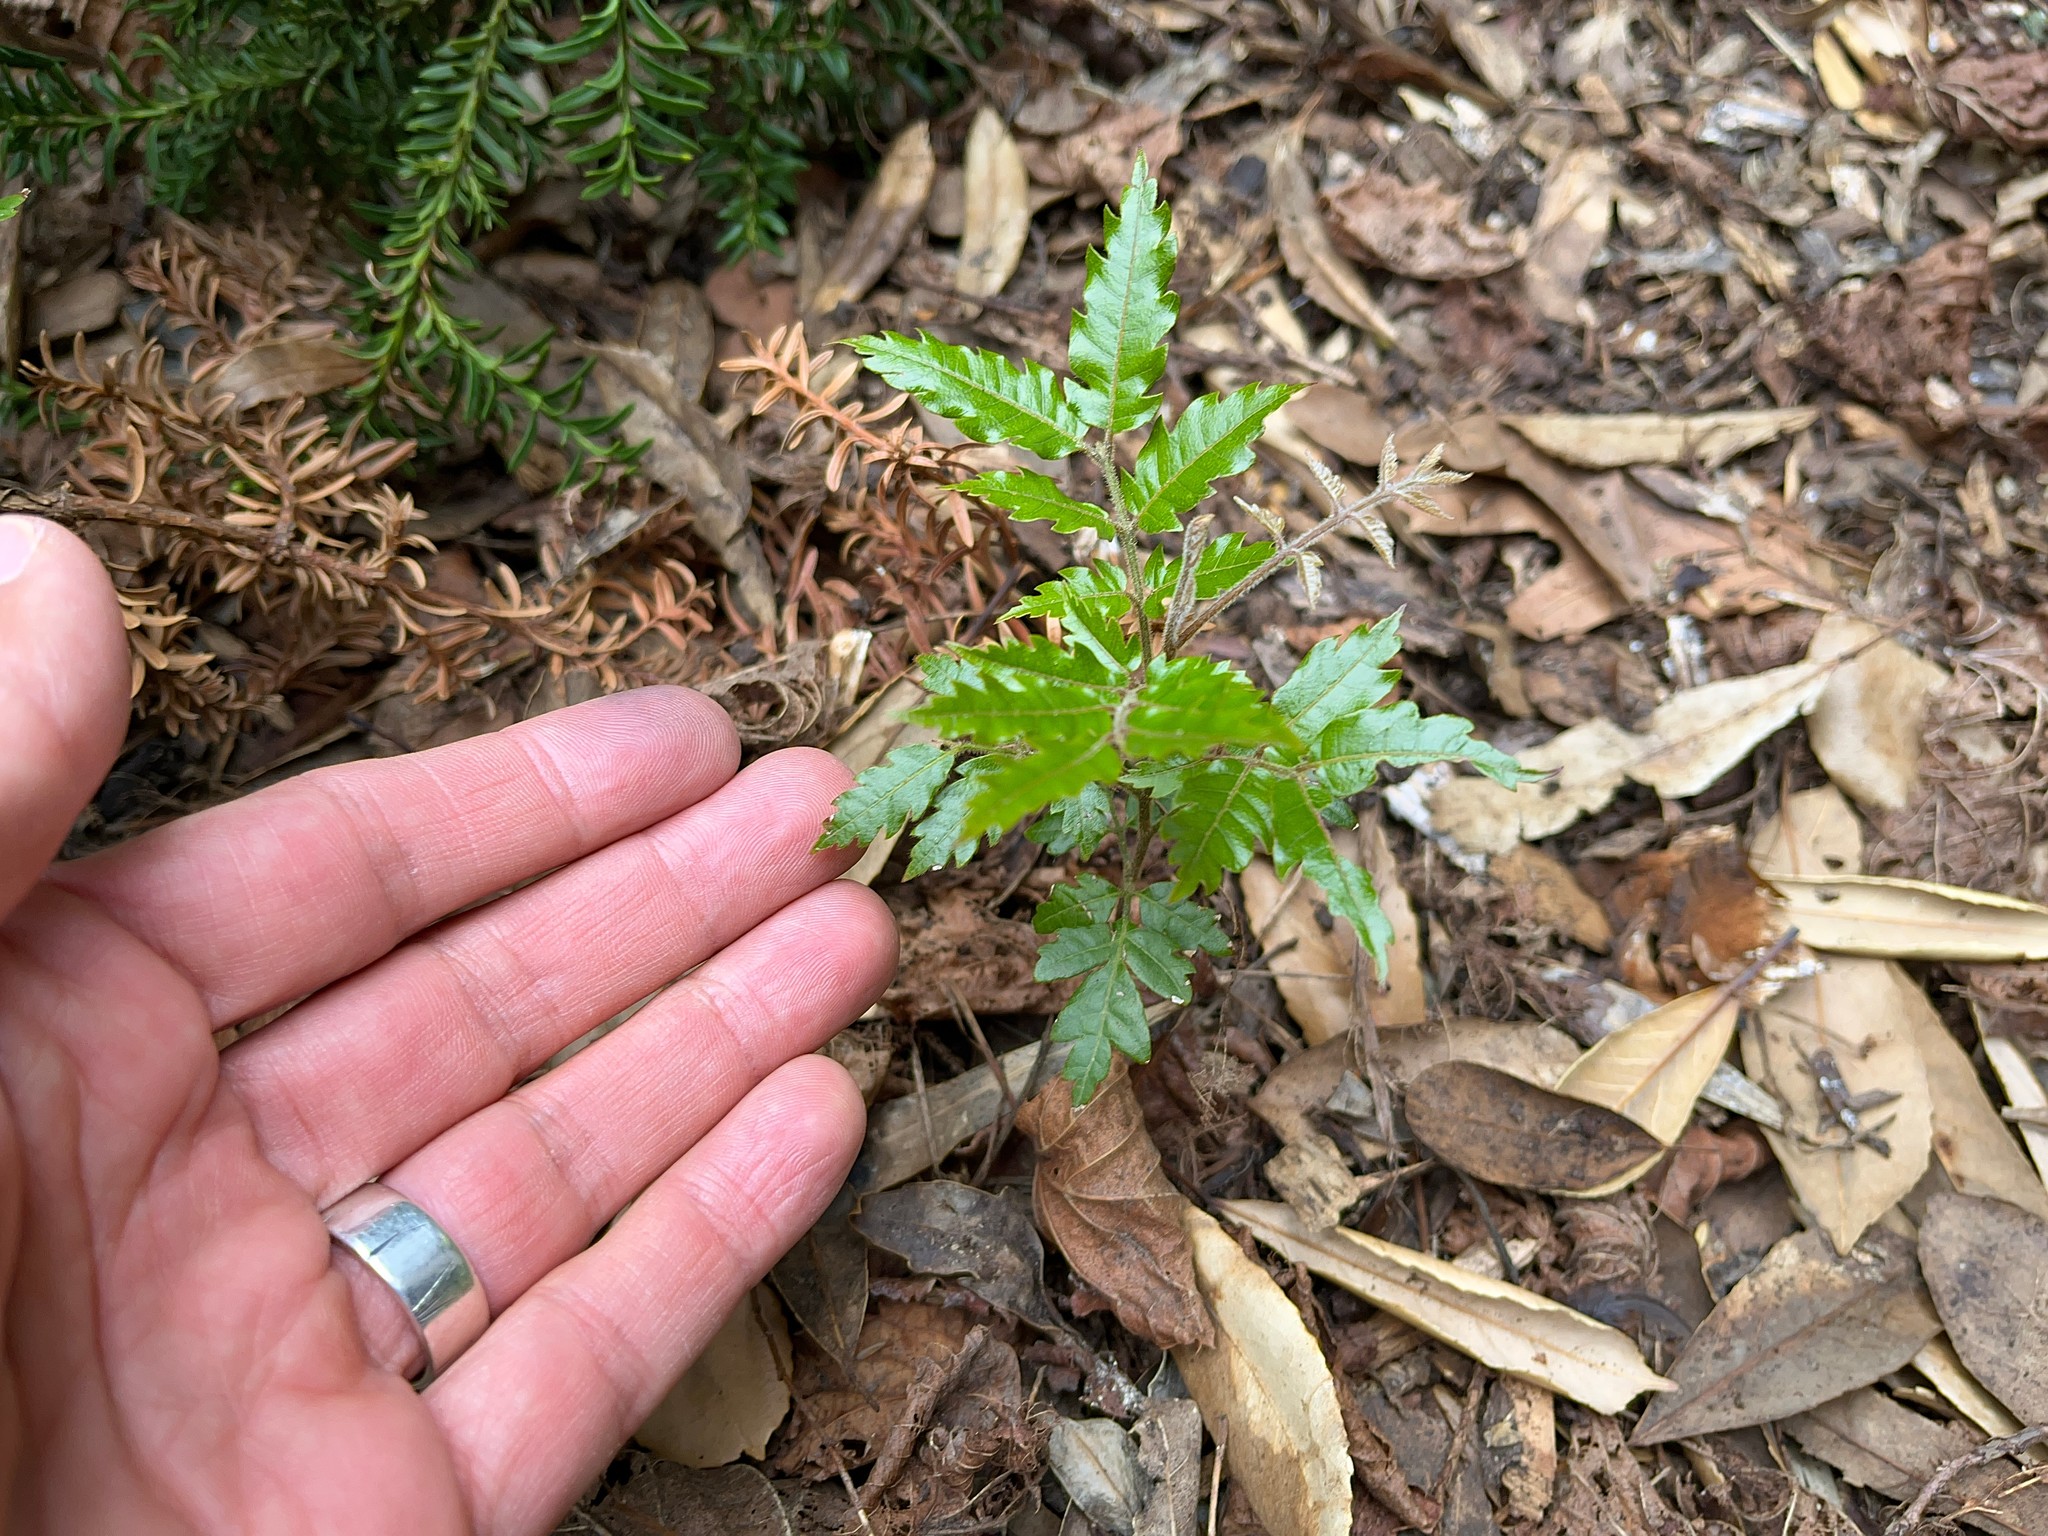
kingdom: Plantae
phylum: Tracheophyta
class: Magnoliopsida
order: Sapindales
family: Sapindaceae
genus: Alectryon
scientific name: Alectryon excelsus
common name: Three kings titoki
